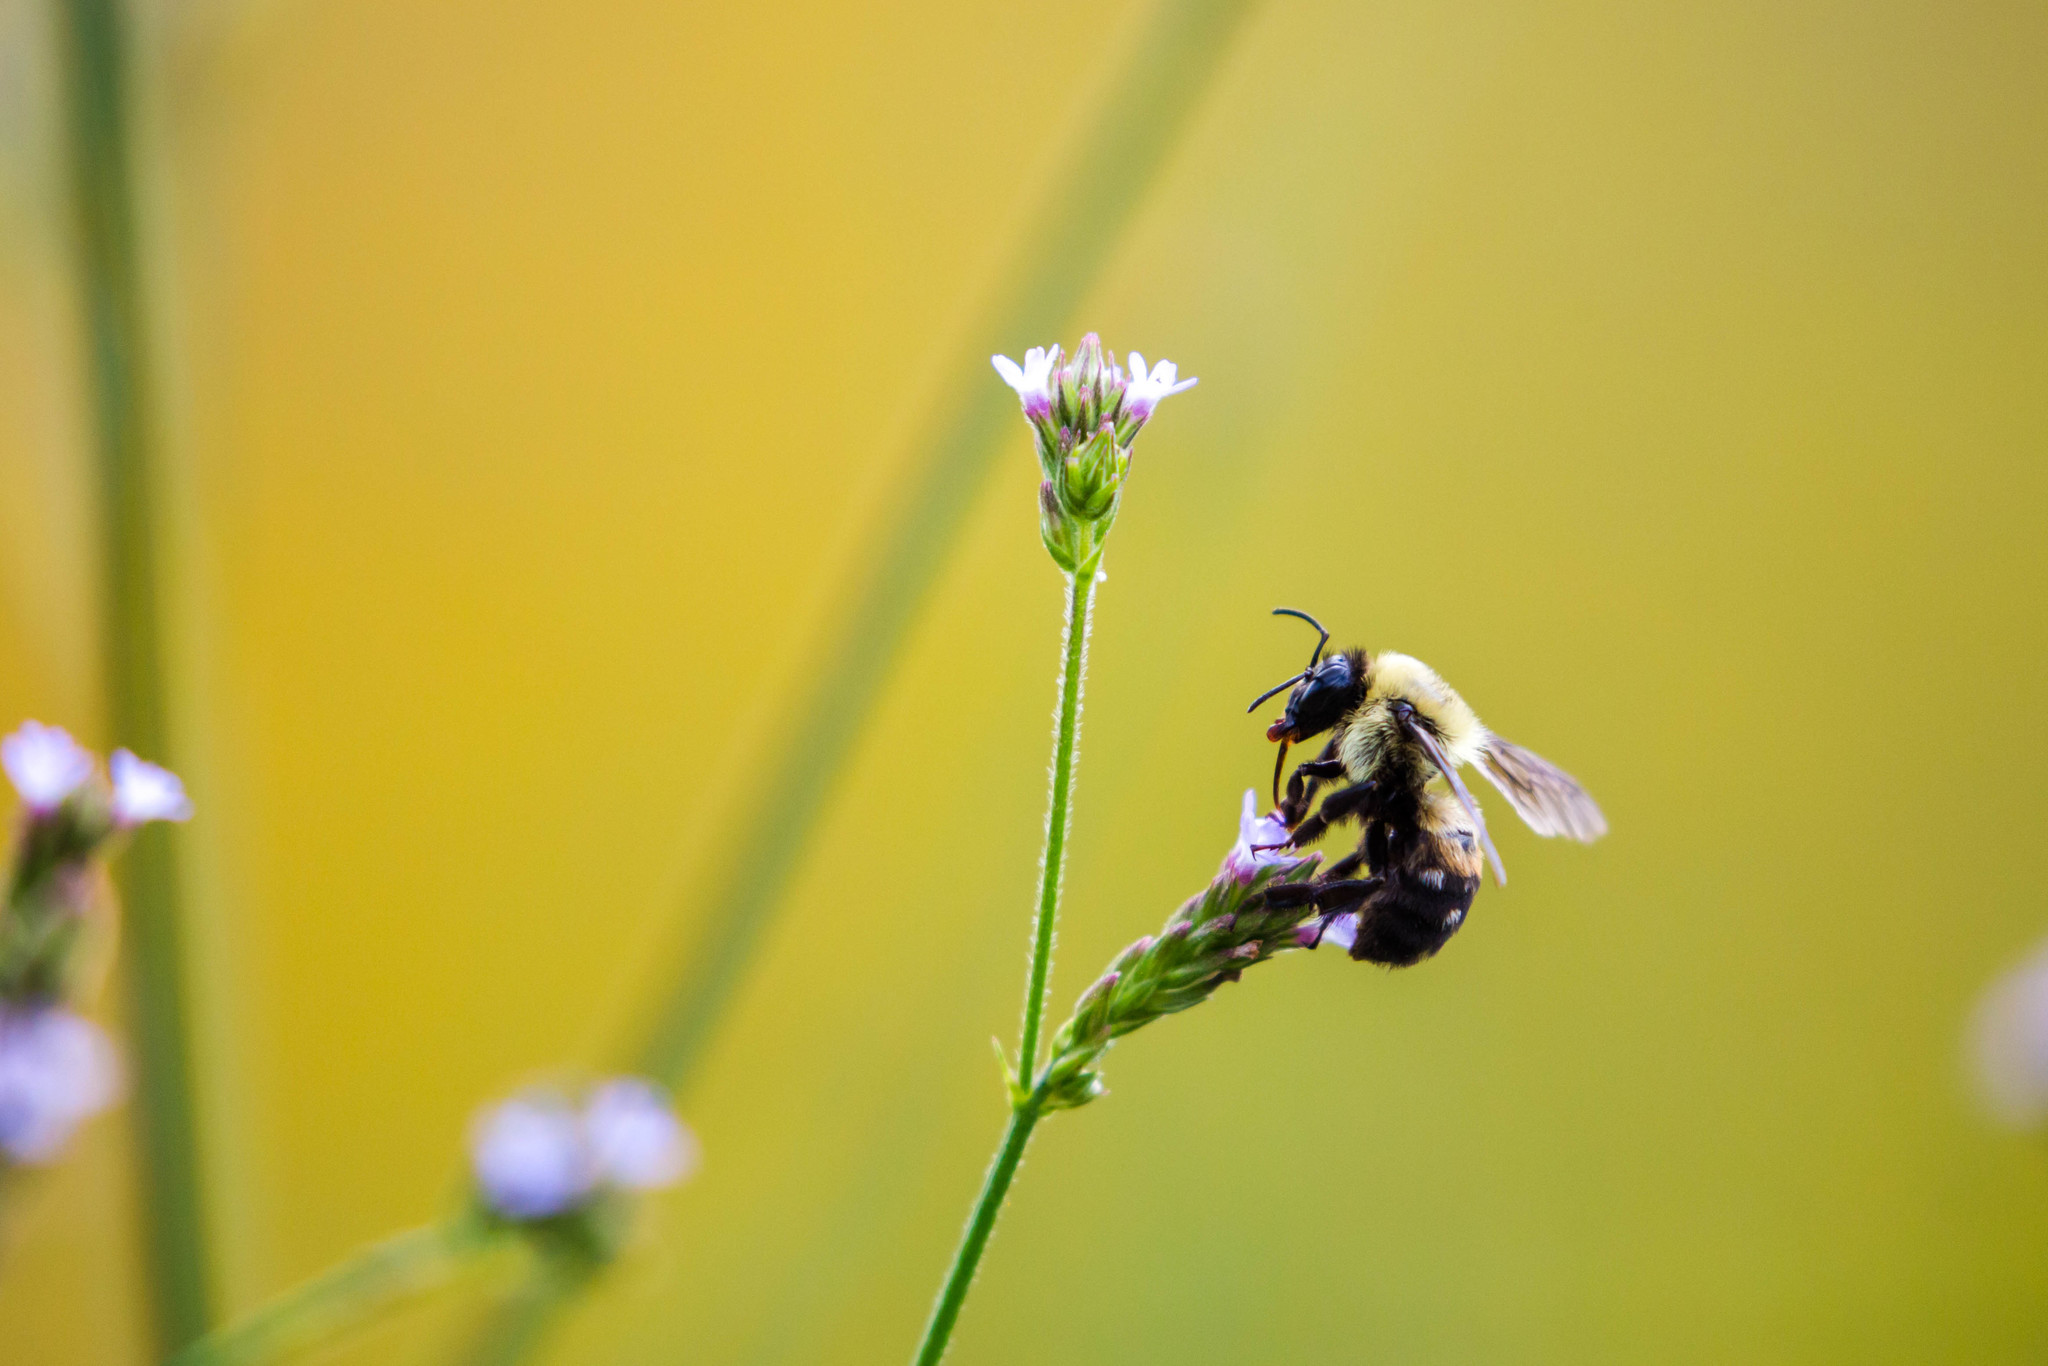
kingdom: Animalia
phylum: Arthropoda
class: Insecta
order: Hymenoptera
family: Apidae
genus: Bombus
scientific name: Bombus griseocollis
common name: Brown-belted bumble bee
